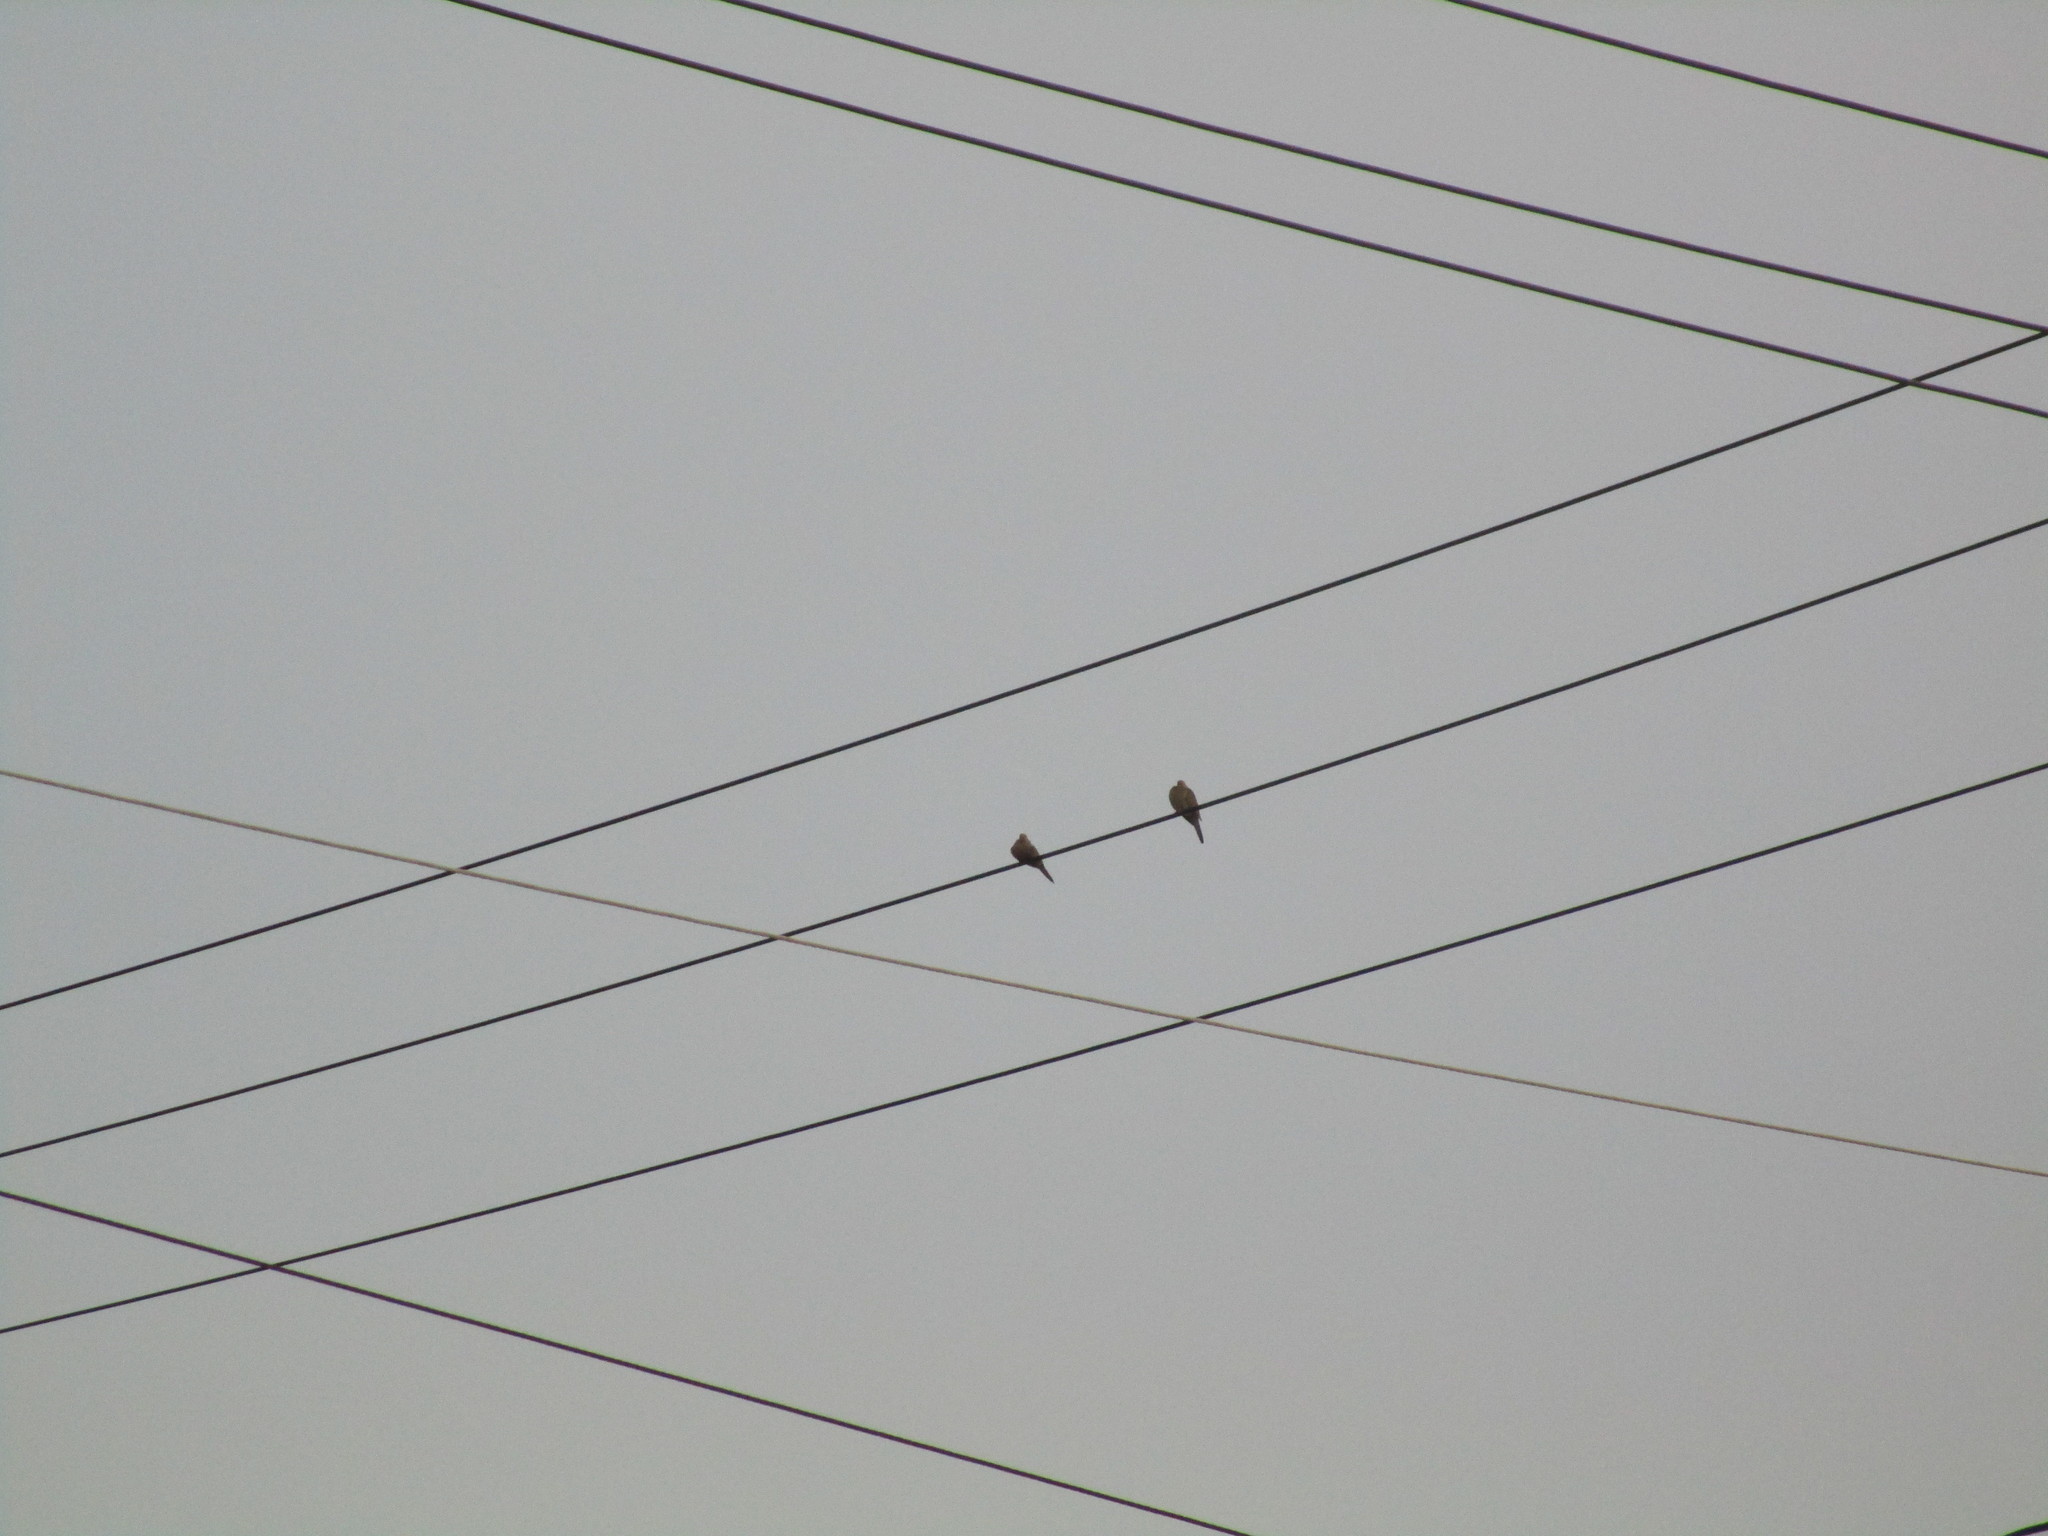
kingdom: Animalia
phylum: Chordata
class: Aves
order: Columbiformes
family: Columbidae
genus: Zenaida
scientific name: Zenaida macroura
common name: Mourning dove
